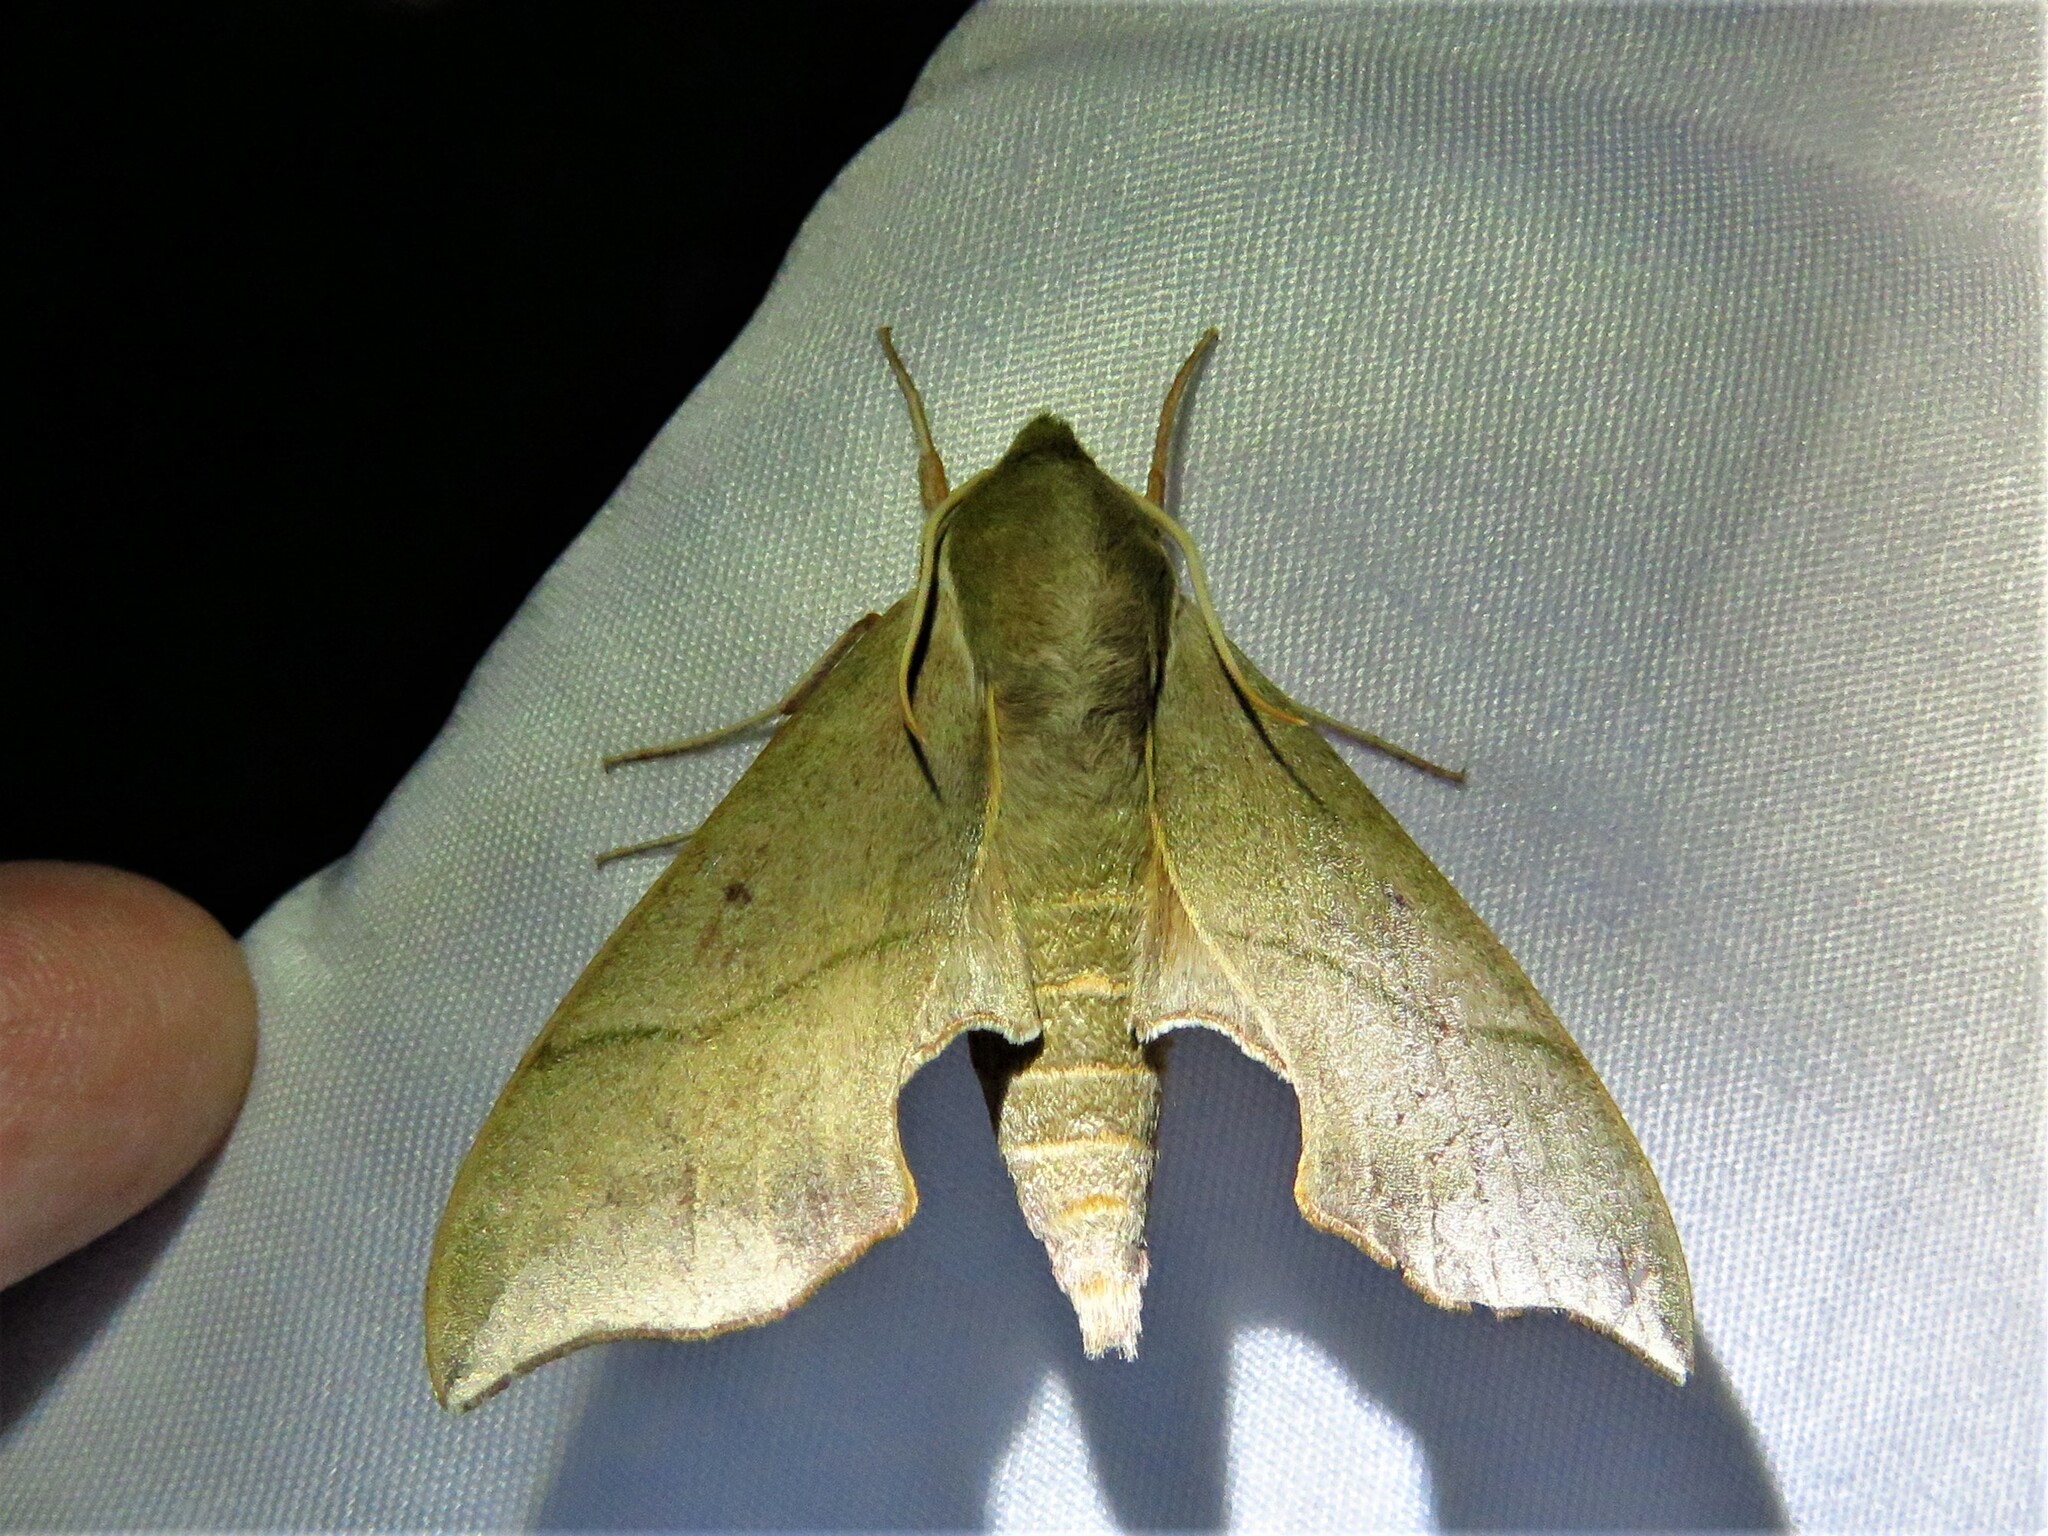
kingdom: Animalia
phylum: Arthropoda
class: Insecta
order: Lepidoptera
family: Sphingidae
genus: Darapsa
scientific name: Darapsa myron
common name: Hog sphinx
